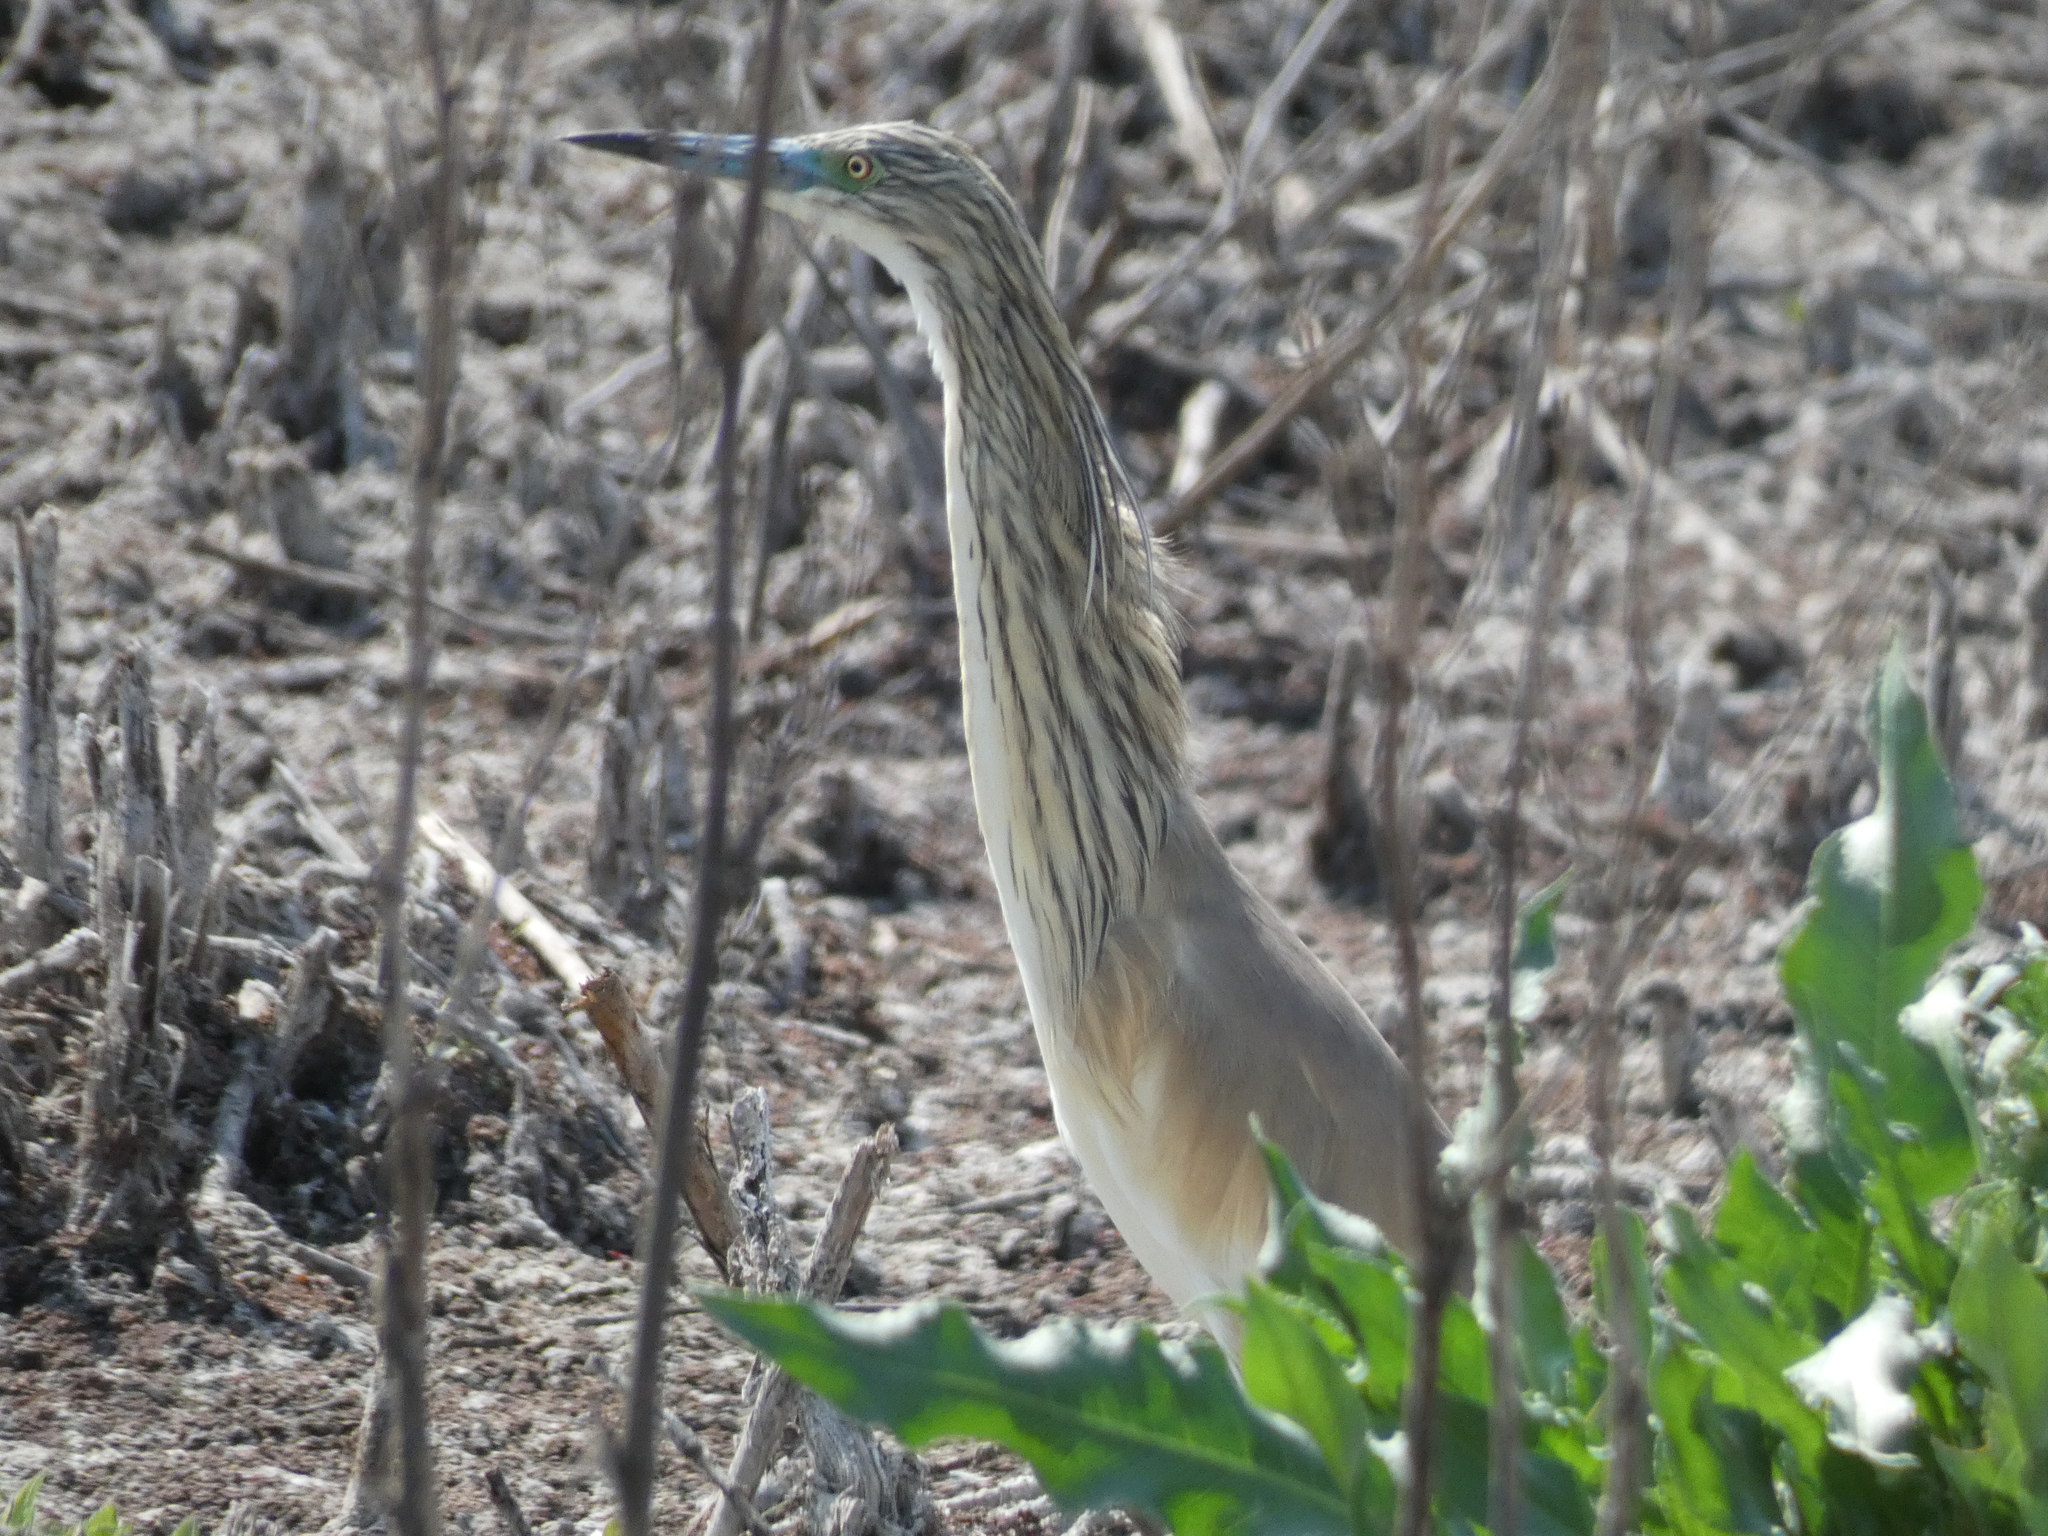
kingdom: Animalia
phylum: Chordata
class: Aves
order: Pelecaniformes
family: Ardeidae
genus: Ardeola
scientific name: Ardeola ralloides
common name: Squacco heron
